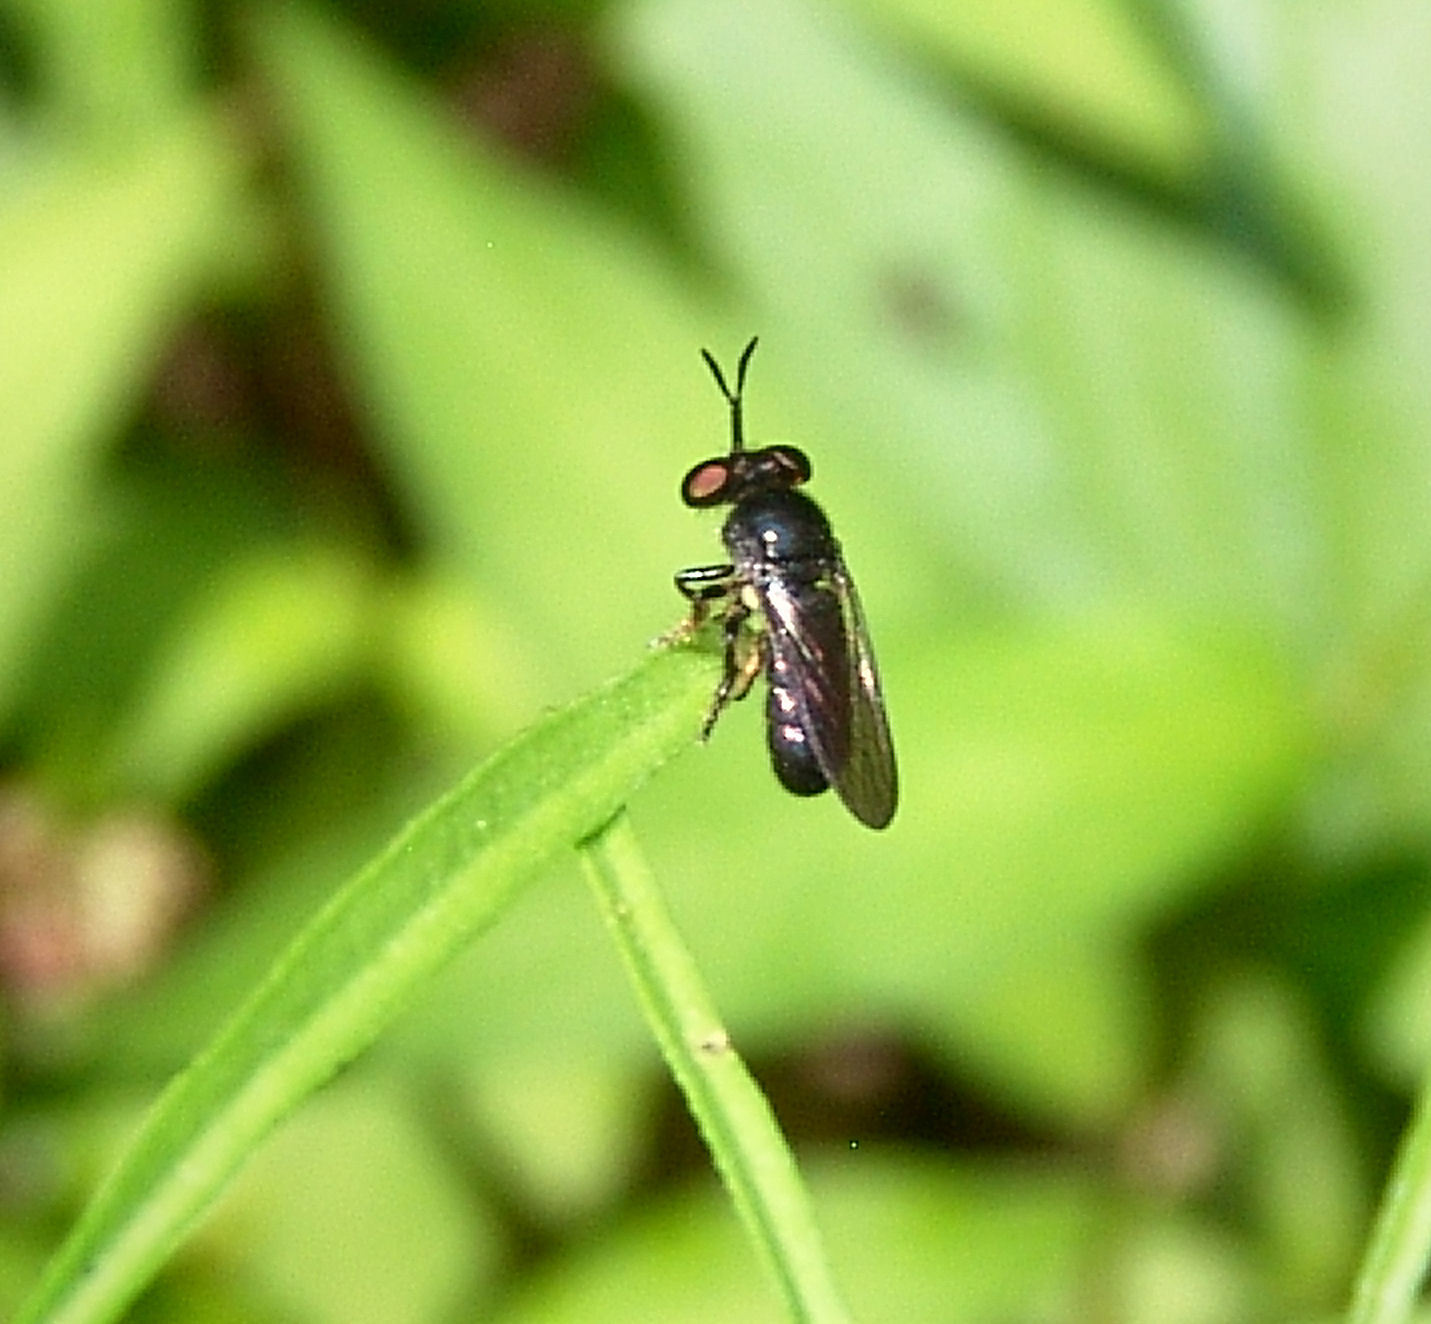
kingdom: Animalia
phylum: Arthropoda
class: Insecta
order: Diptera
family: Asilidae
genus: Cerotainia
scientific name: Cerotainia
